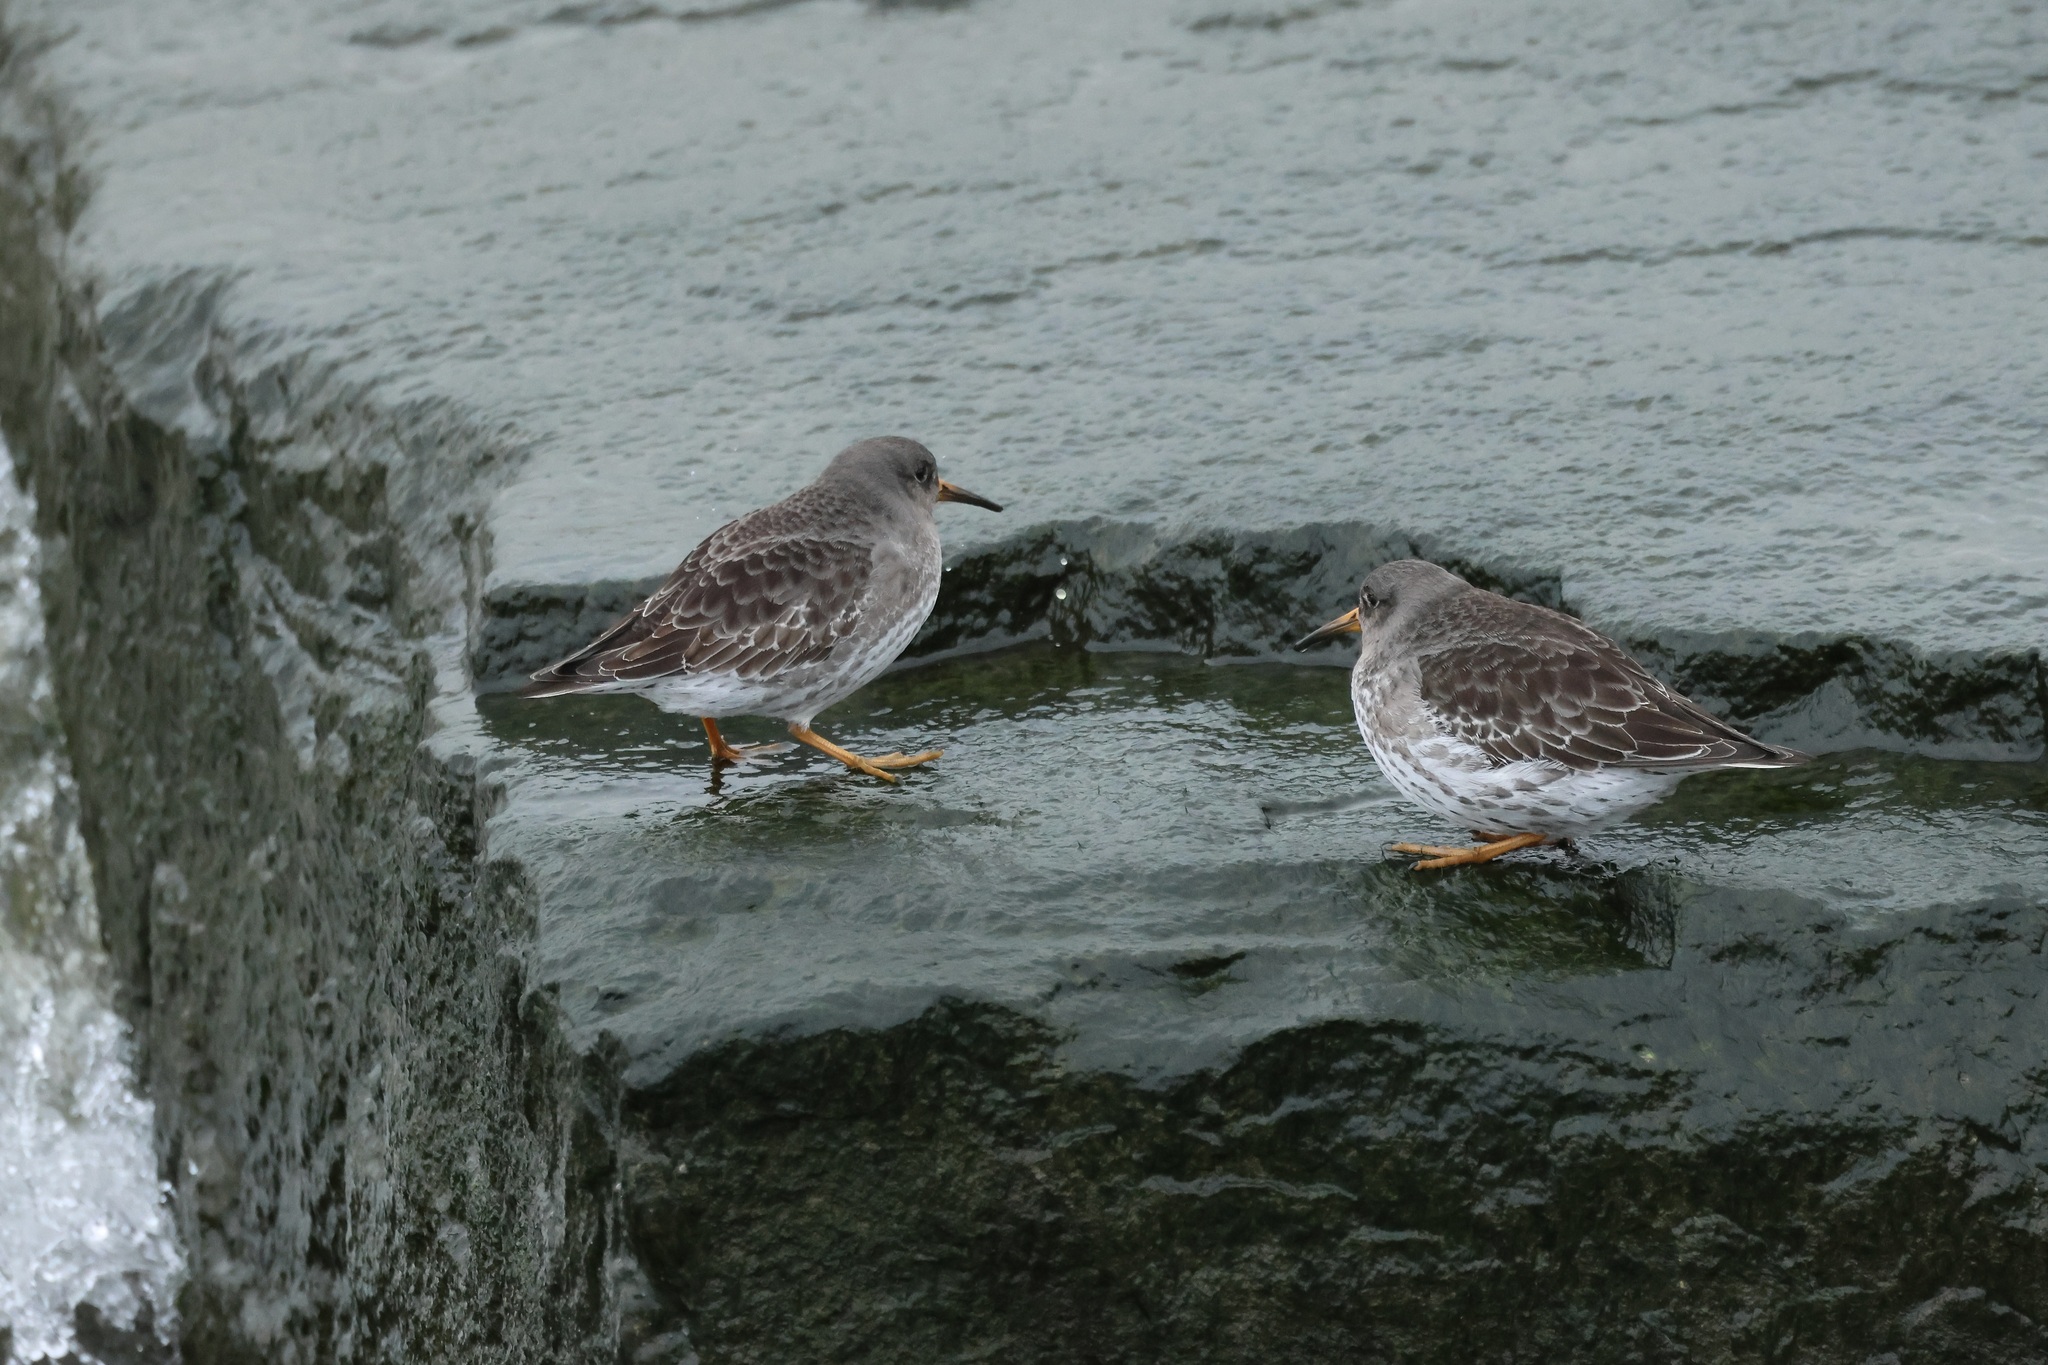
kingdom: Animalia
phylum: Chordata
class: Aves
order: Charadriiformes
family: Scolopacidae
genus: Calidris
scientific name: Calidris maritima
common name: Purple sandpiper
